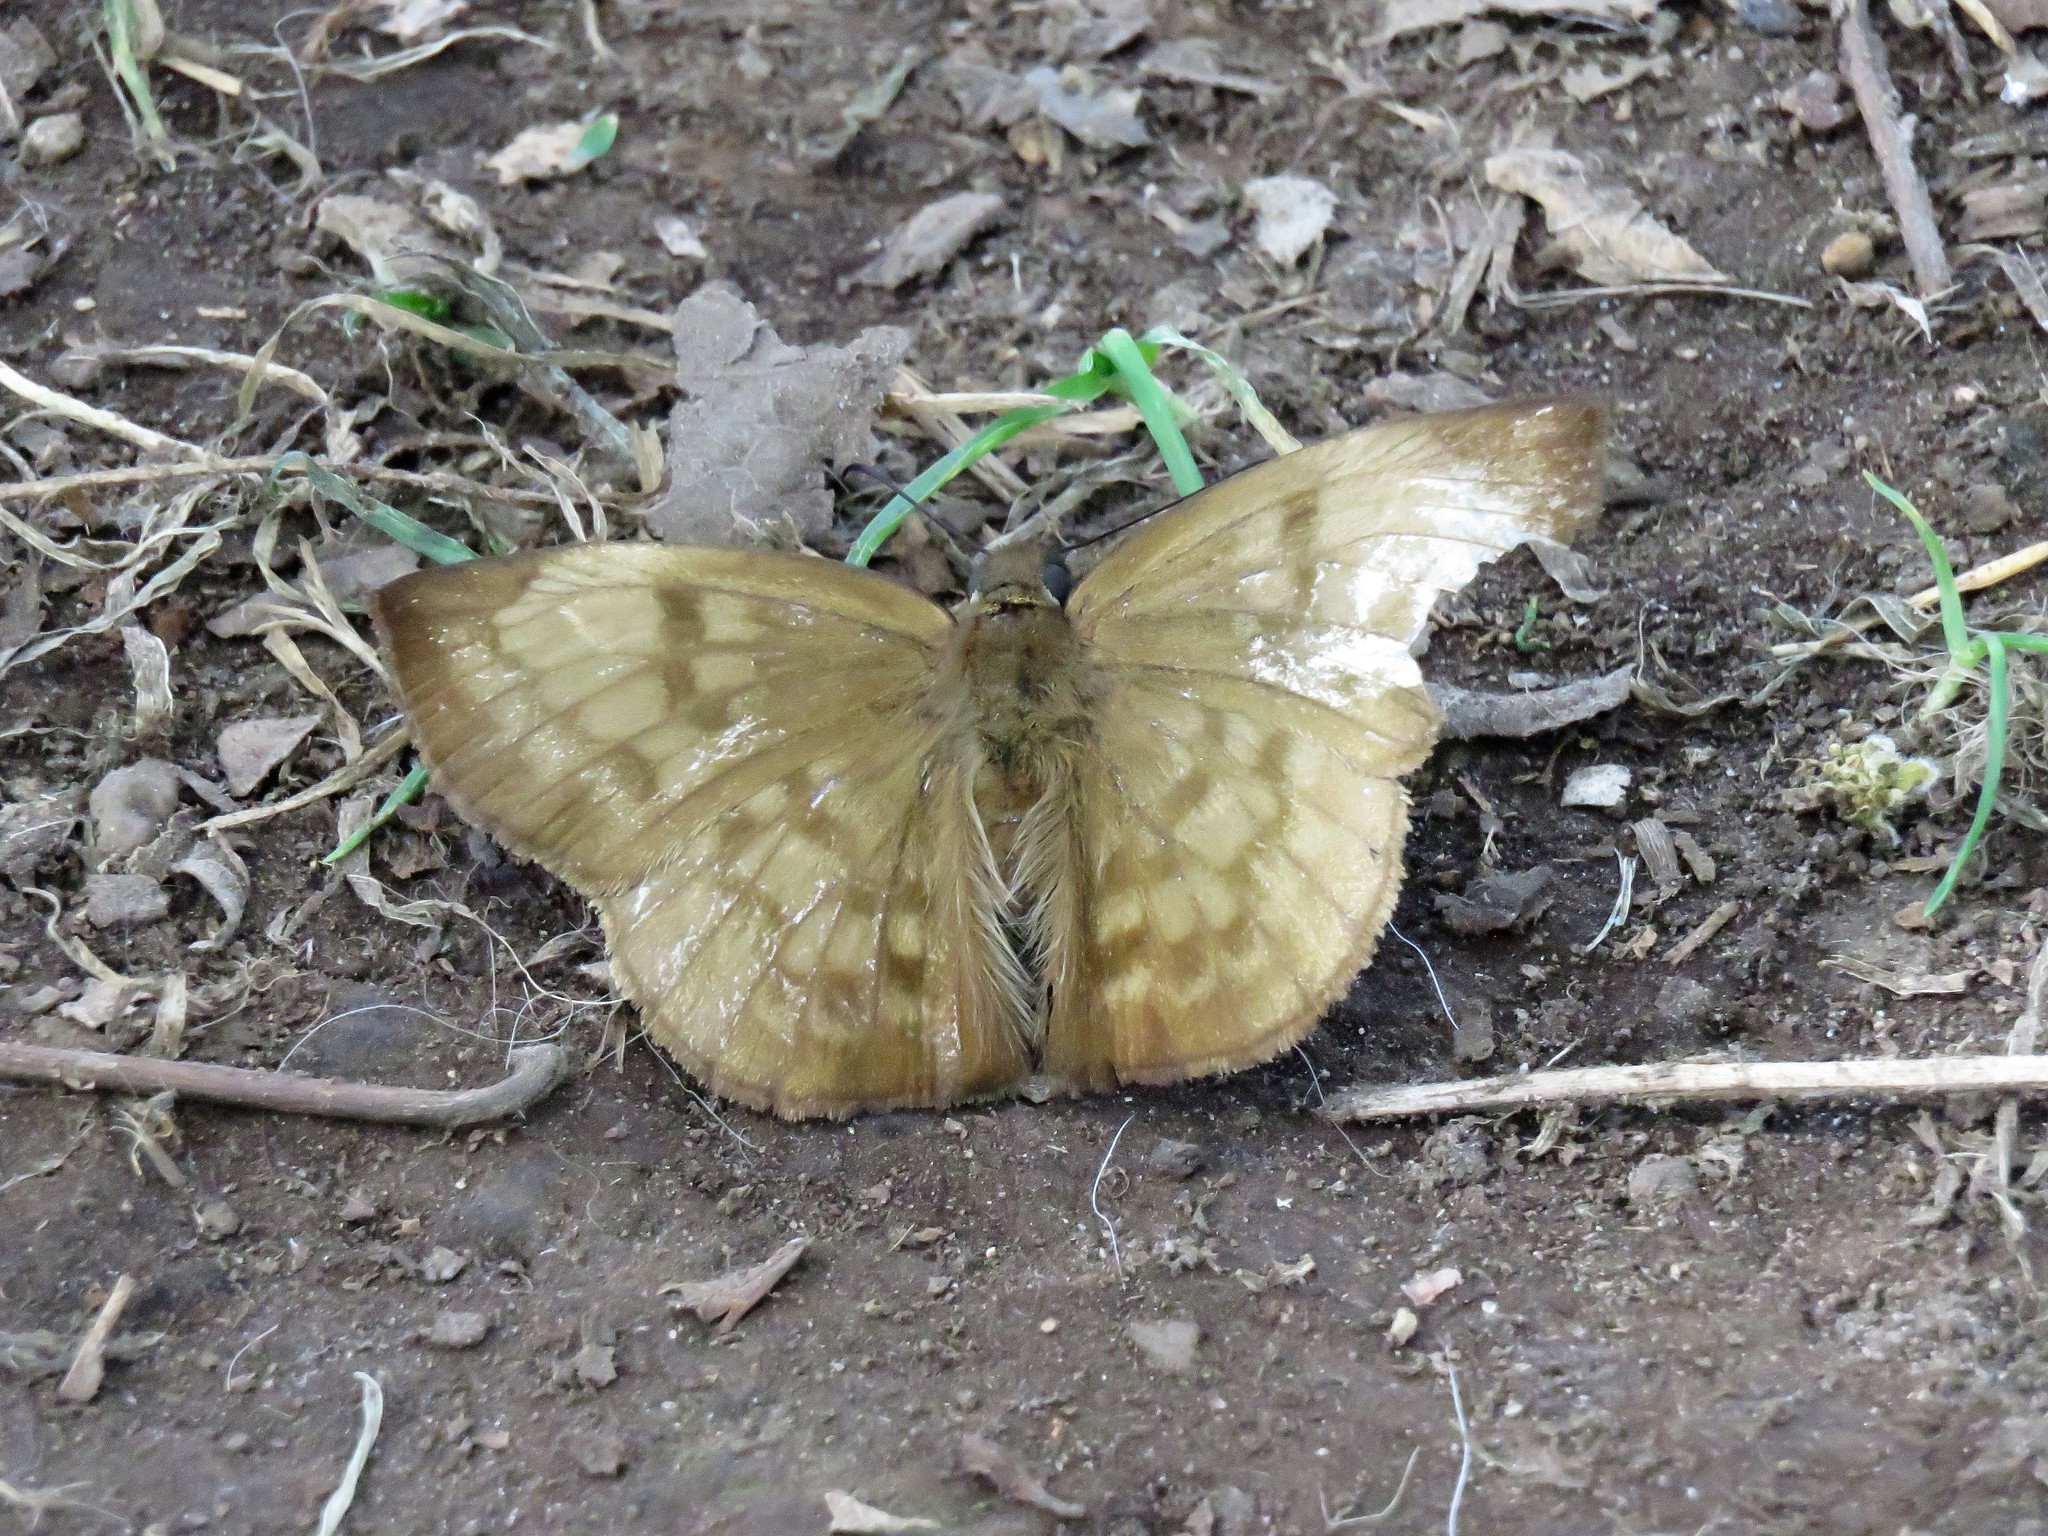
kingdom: Animalia
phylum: Arthropoda
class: Insecta
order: Lepidoptera
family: Hesperiidae
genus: Achlyodes
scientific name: Achlyodes pallida
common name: Pale sicklewing
